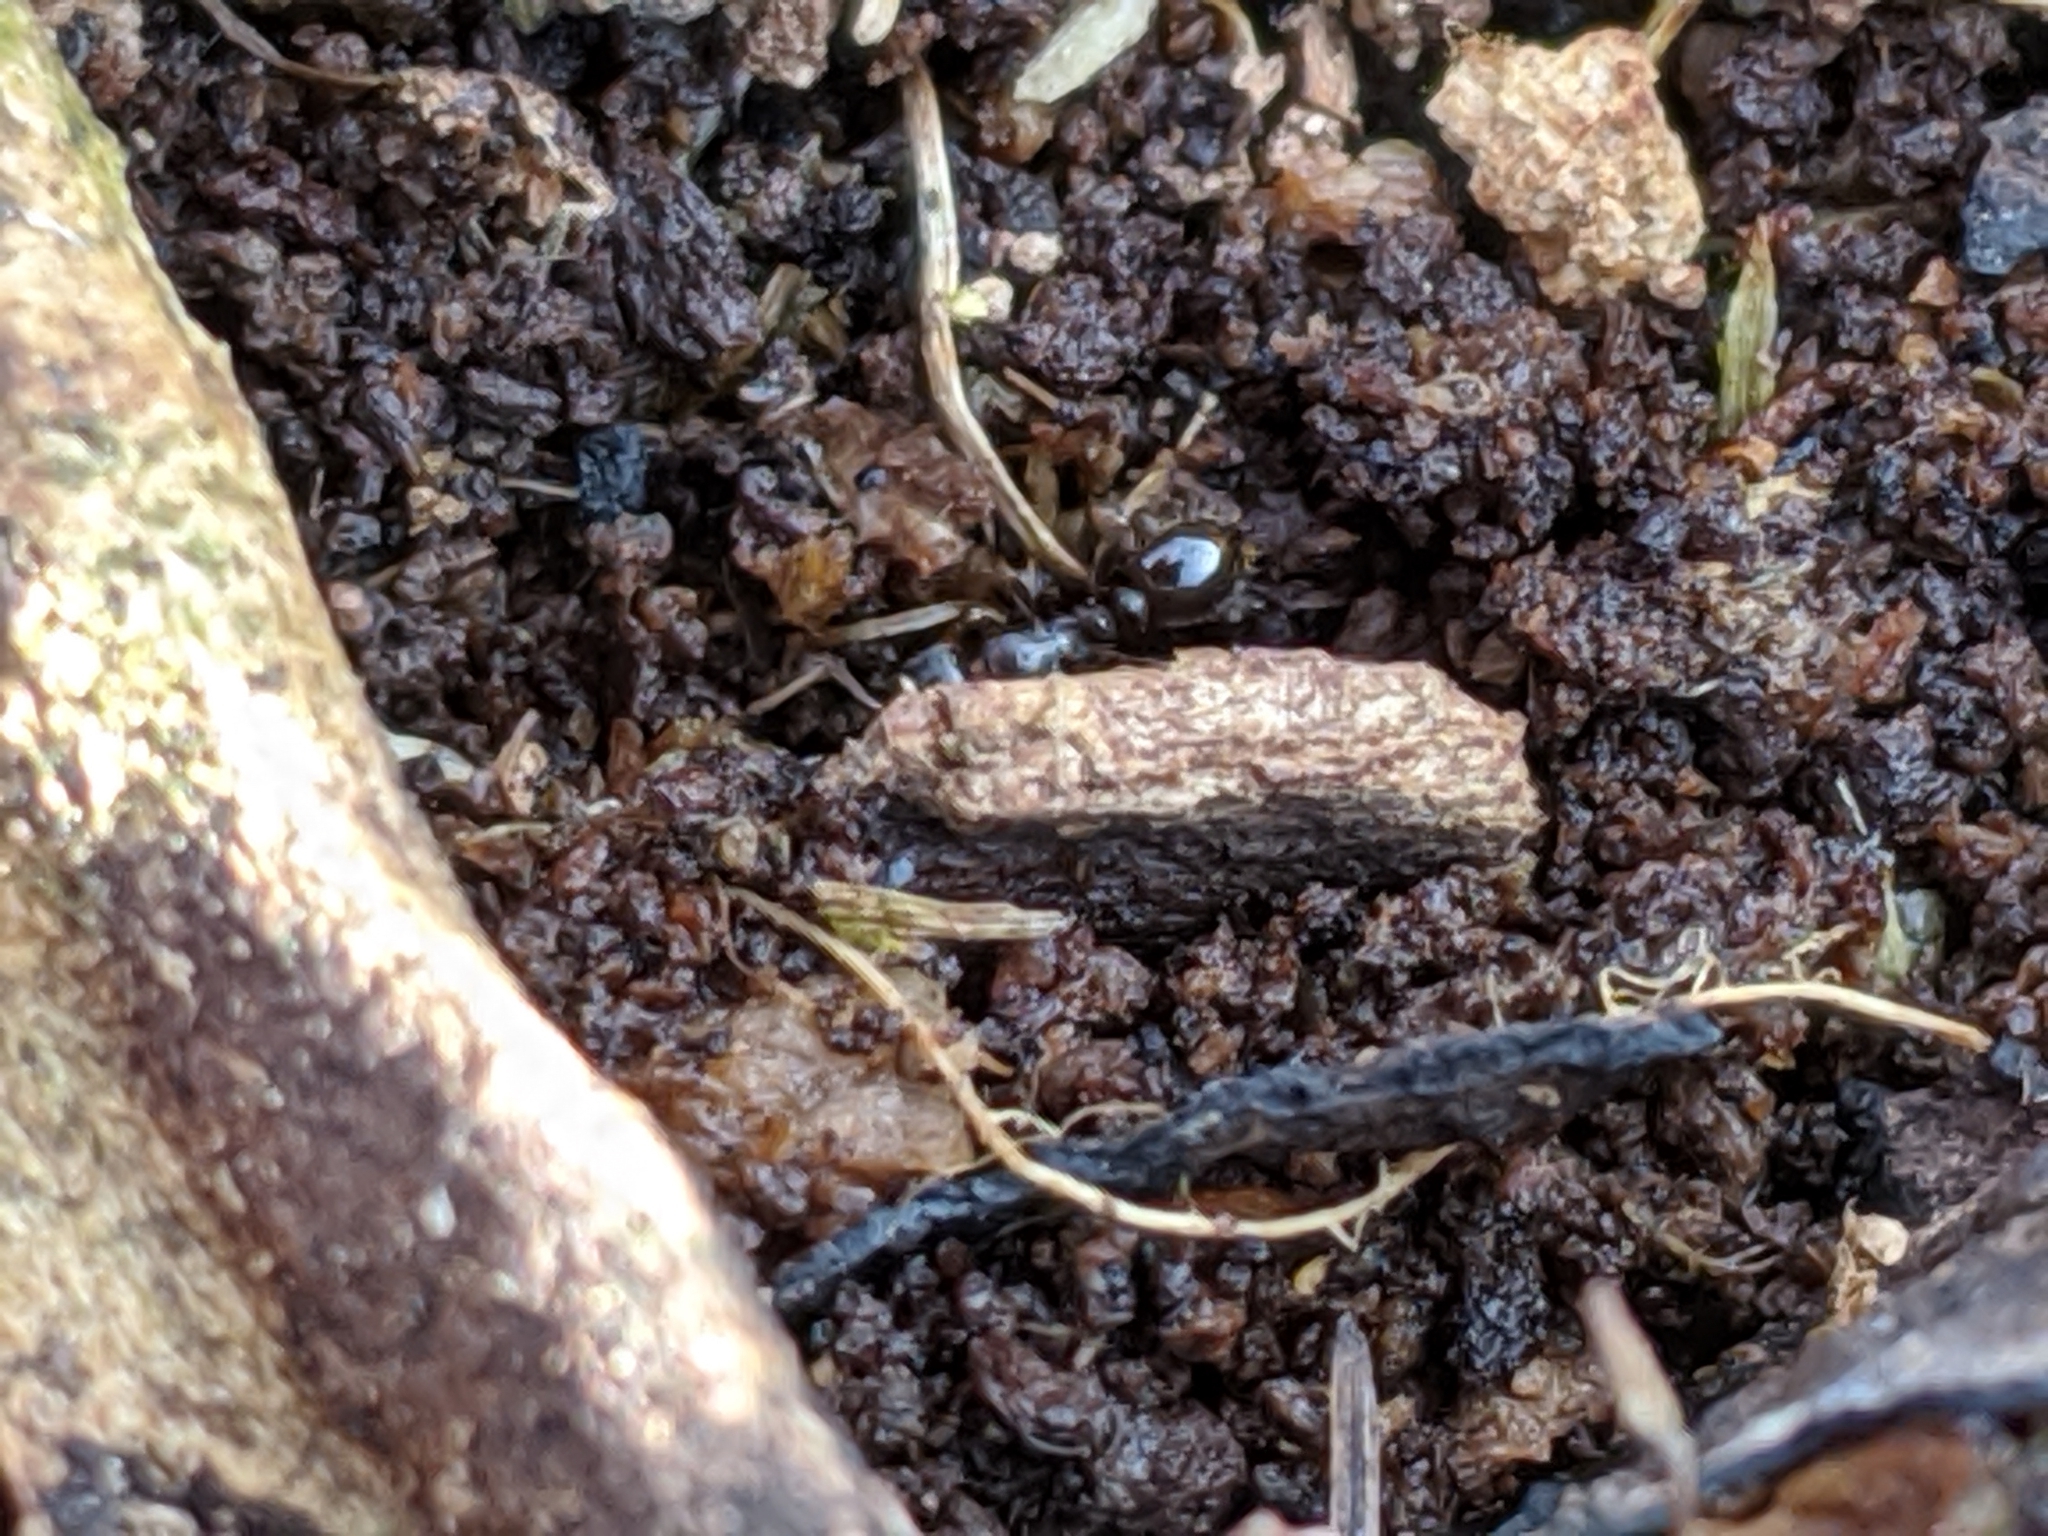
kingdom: Animalia
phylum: Arthropoda
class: Insecta
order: Hymenoptera
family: Formicidae
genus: Tetramorium
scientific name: Tetramorium immigrans
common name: Pavement ant
